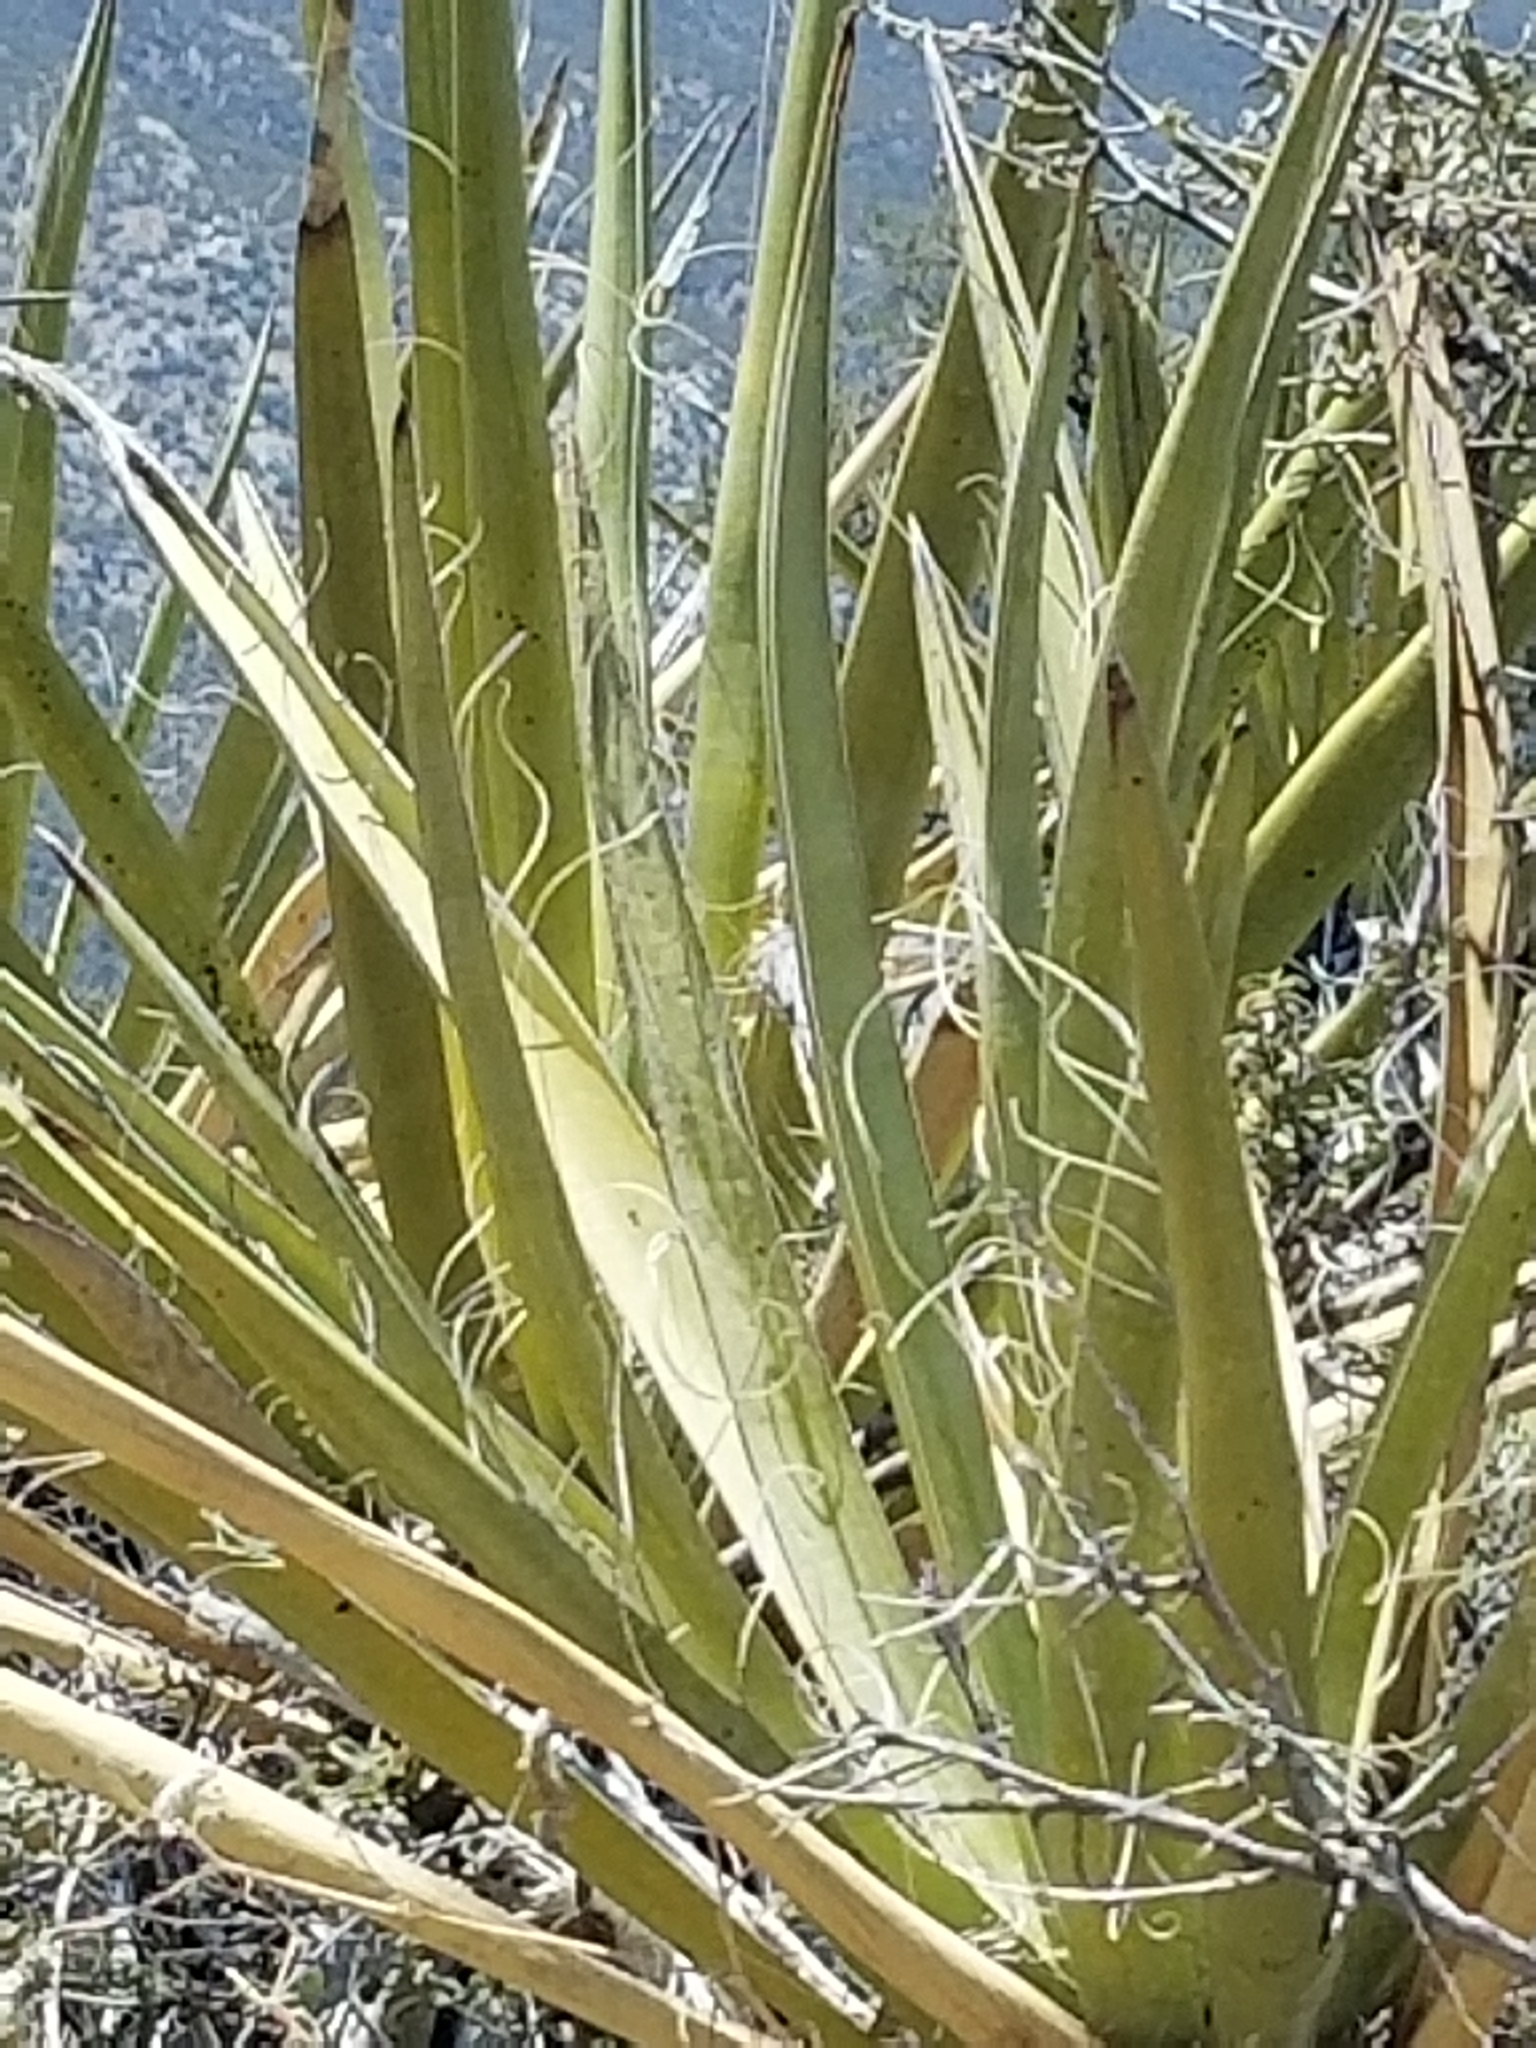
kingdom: Plantae
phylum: Tracheophyta
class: Liliopsida
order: Asparagales
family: Asparagaceae
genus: Yucca
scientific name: Yucca schidigera
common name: Mojave yucca
